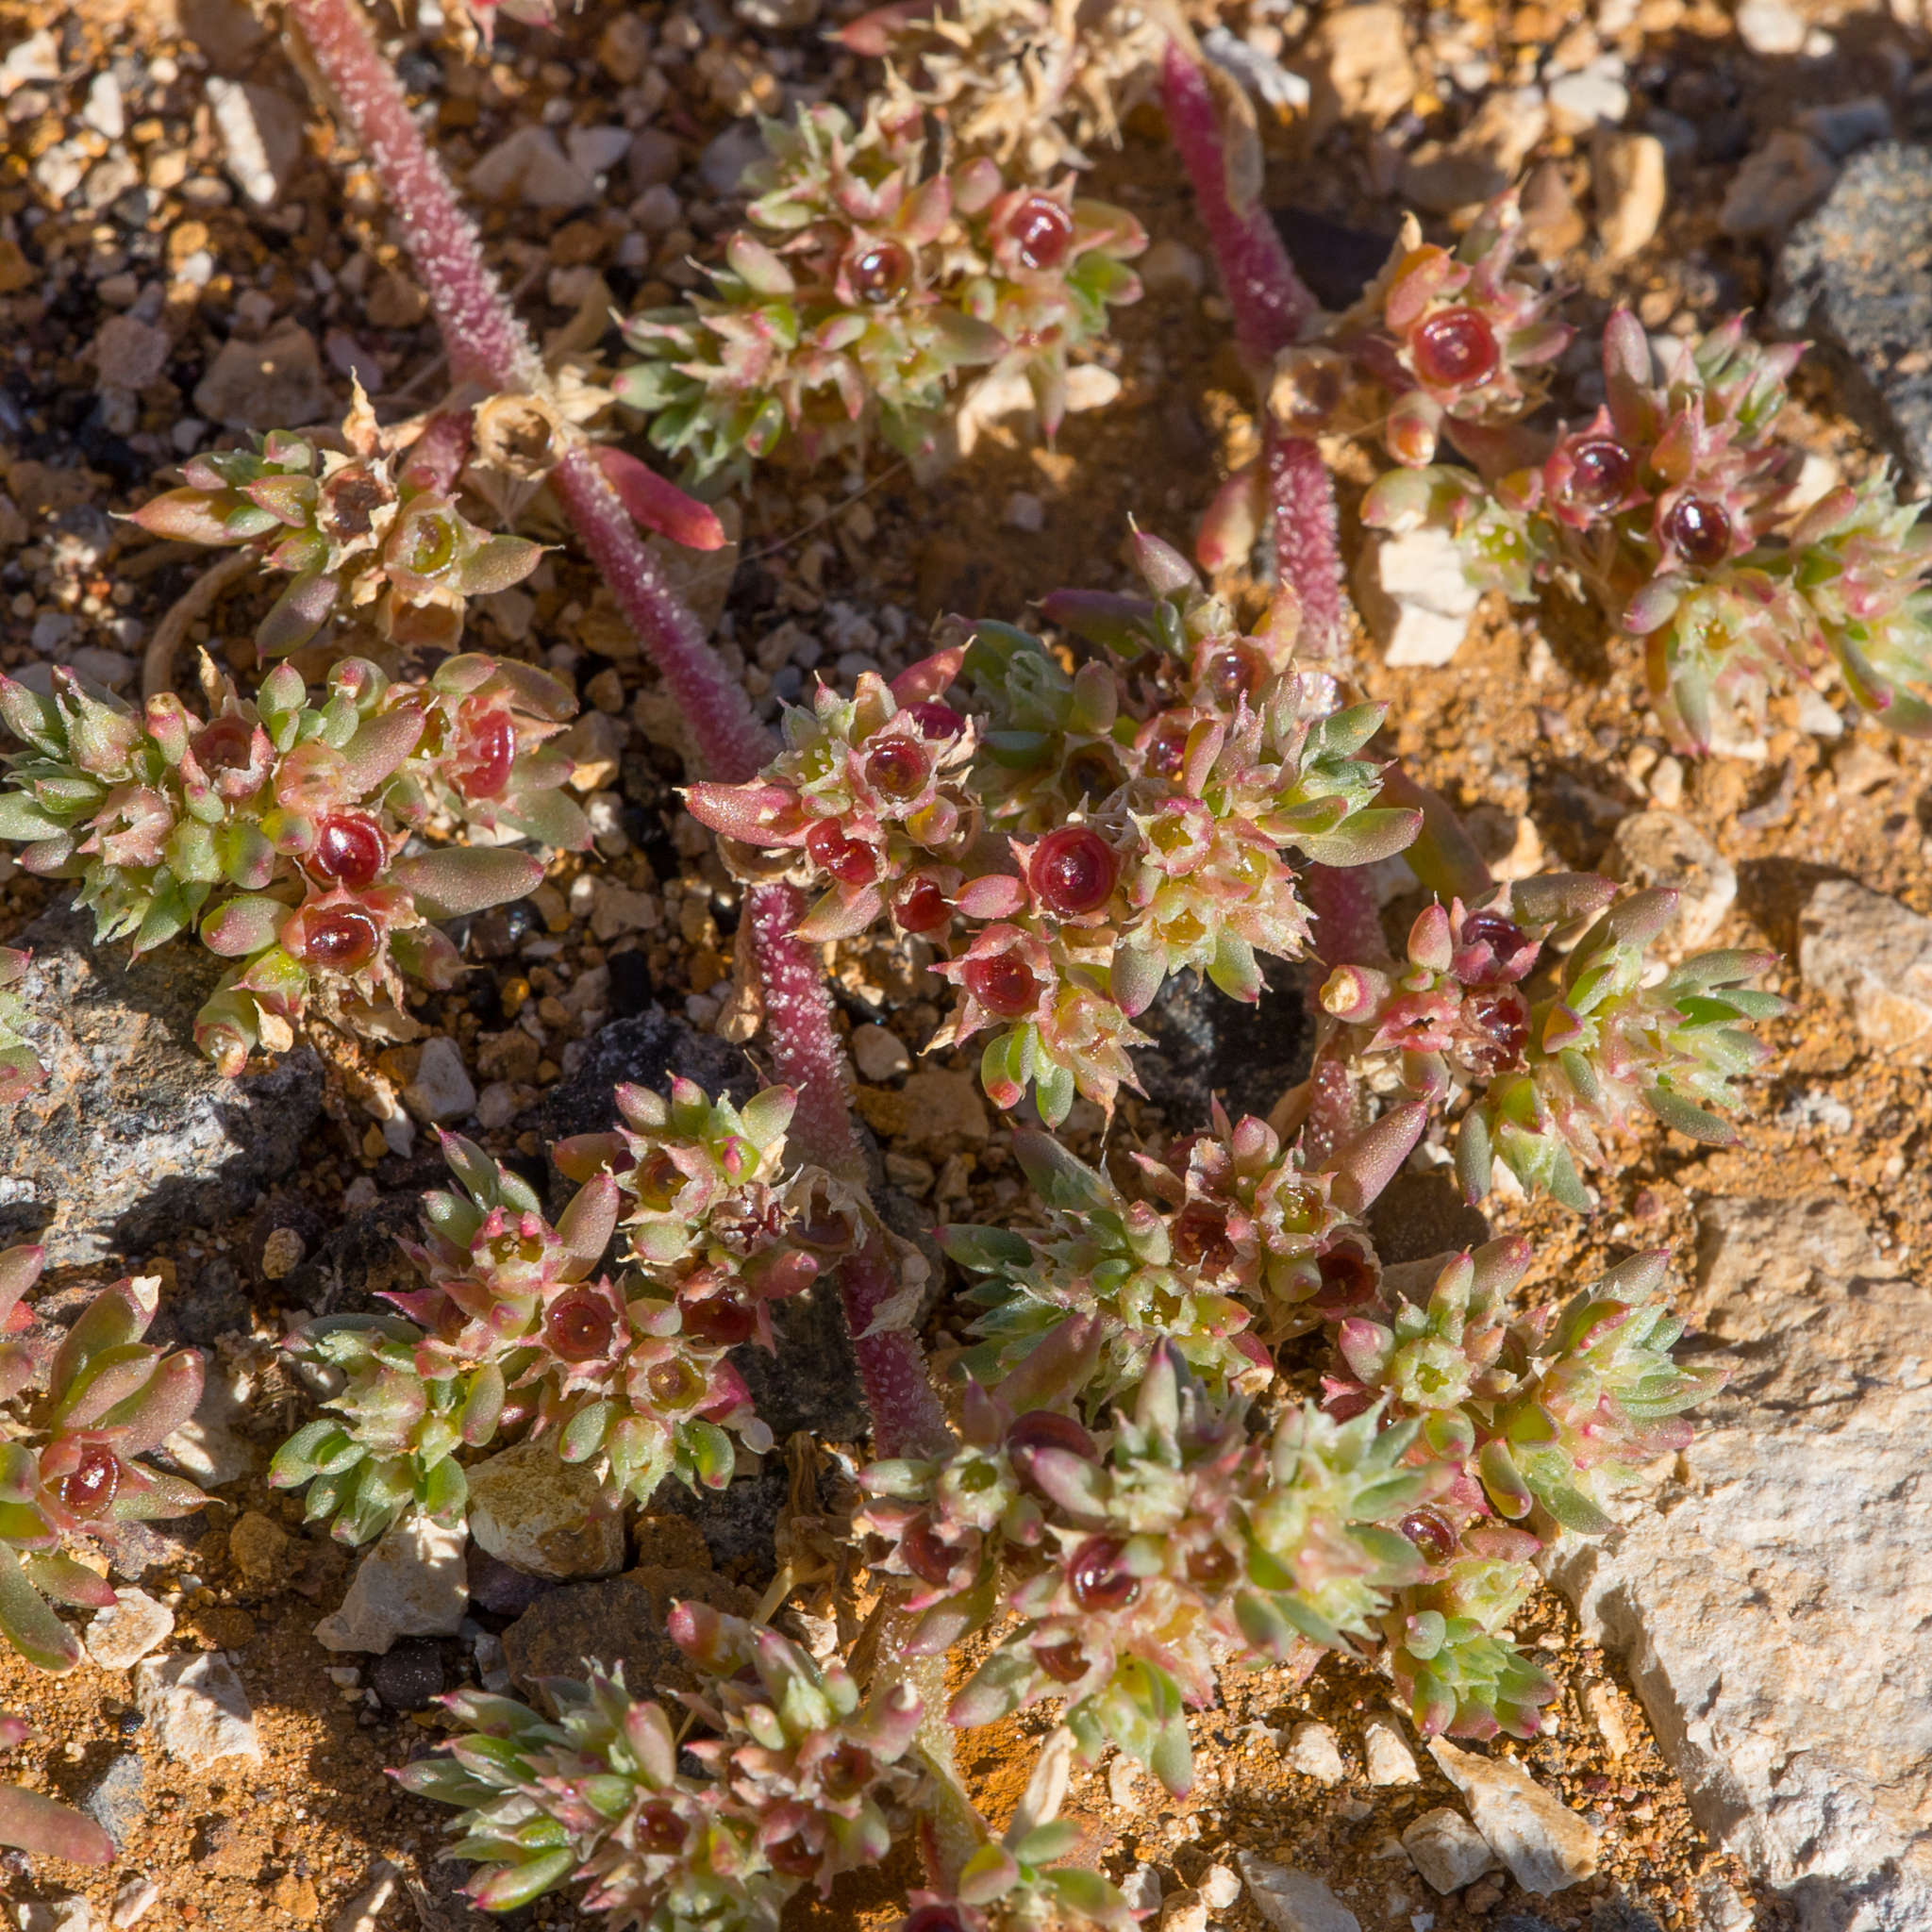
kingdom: Plantae
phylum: Tracheophyta
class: Magnoliopsida
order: Caryophyllales
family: Aizoaceae
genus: Trianthema
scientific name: Trianthema triquetrum
